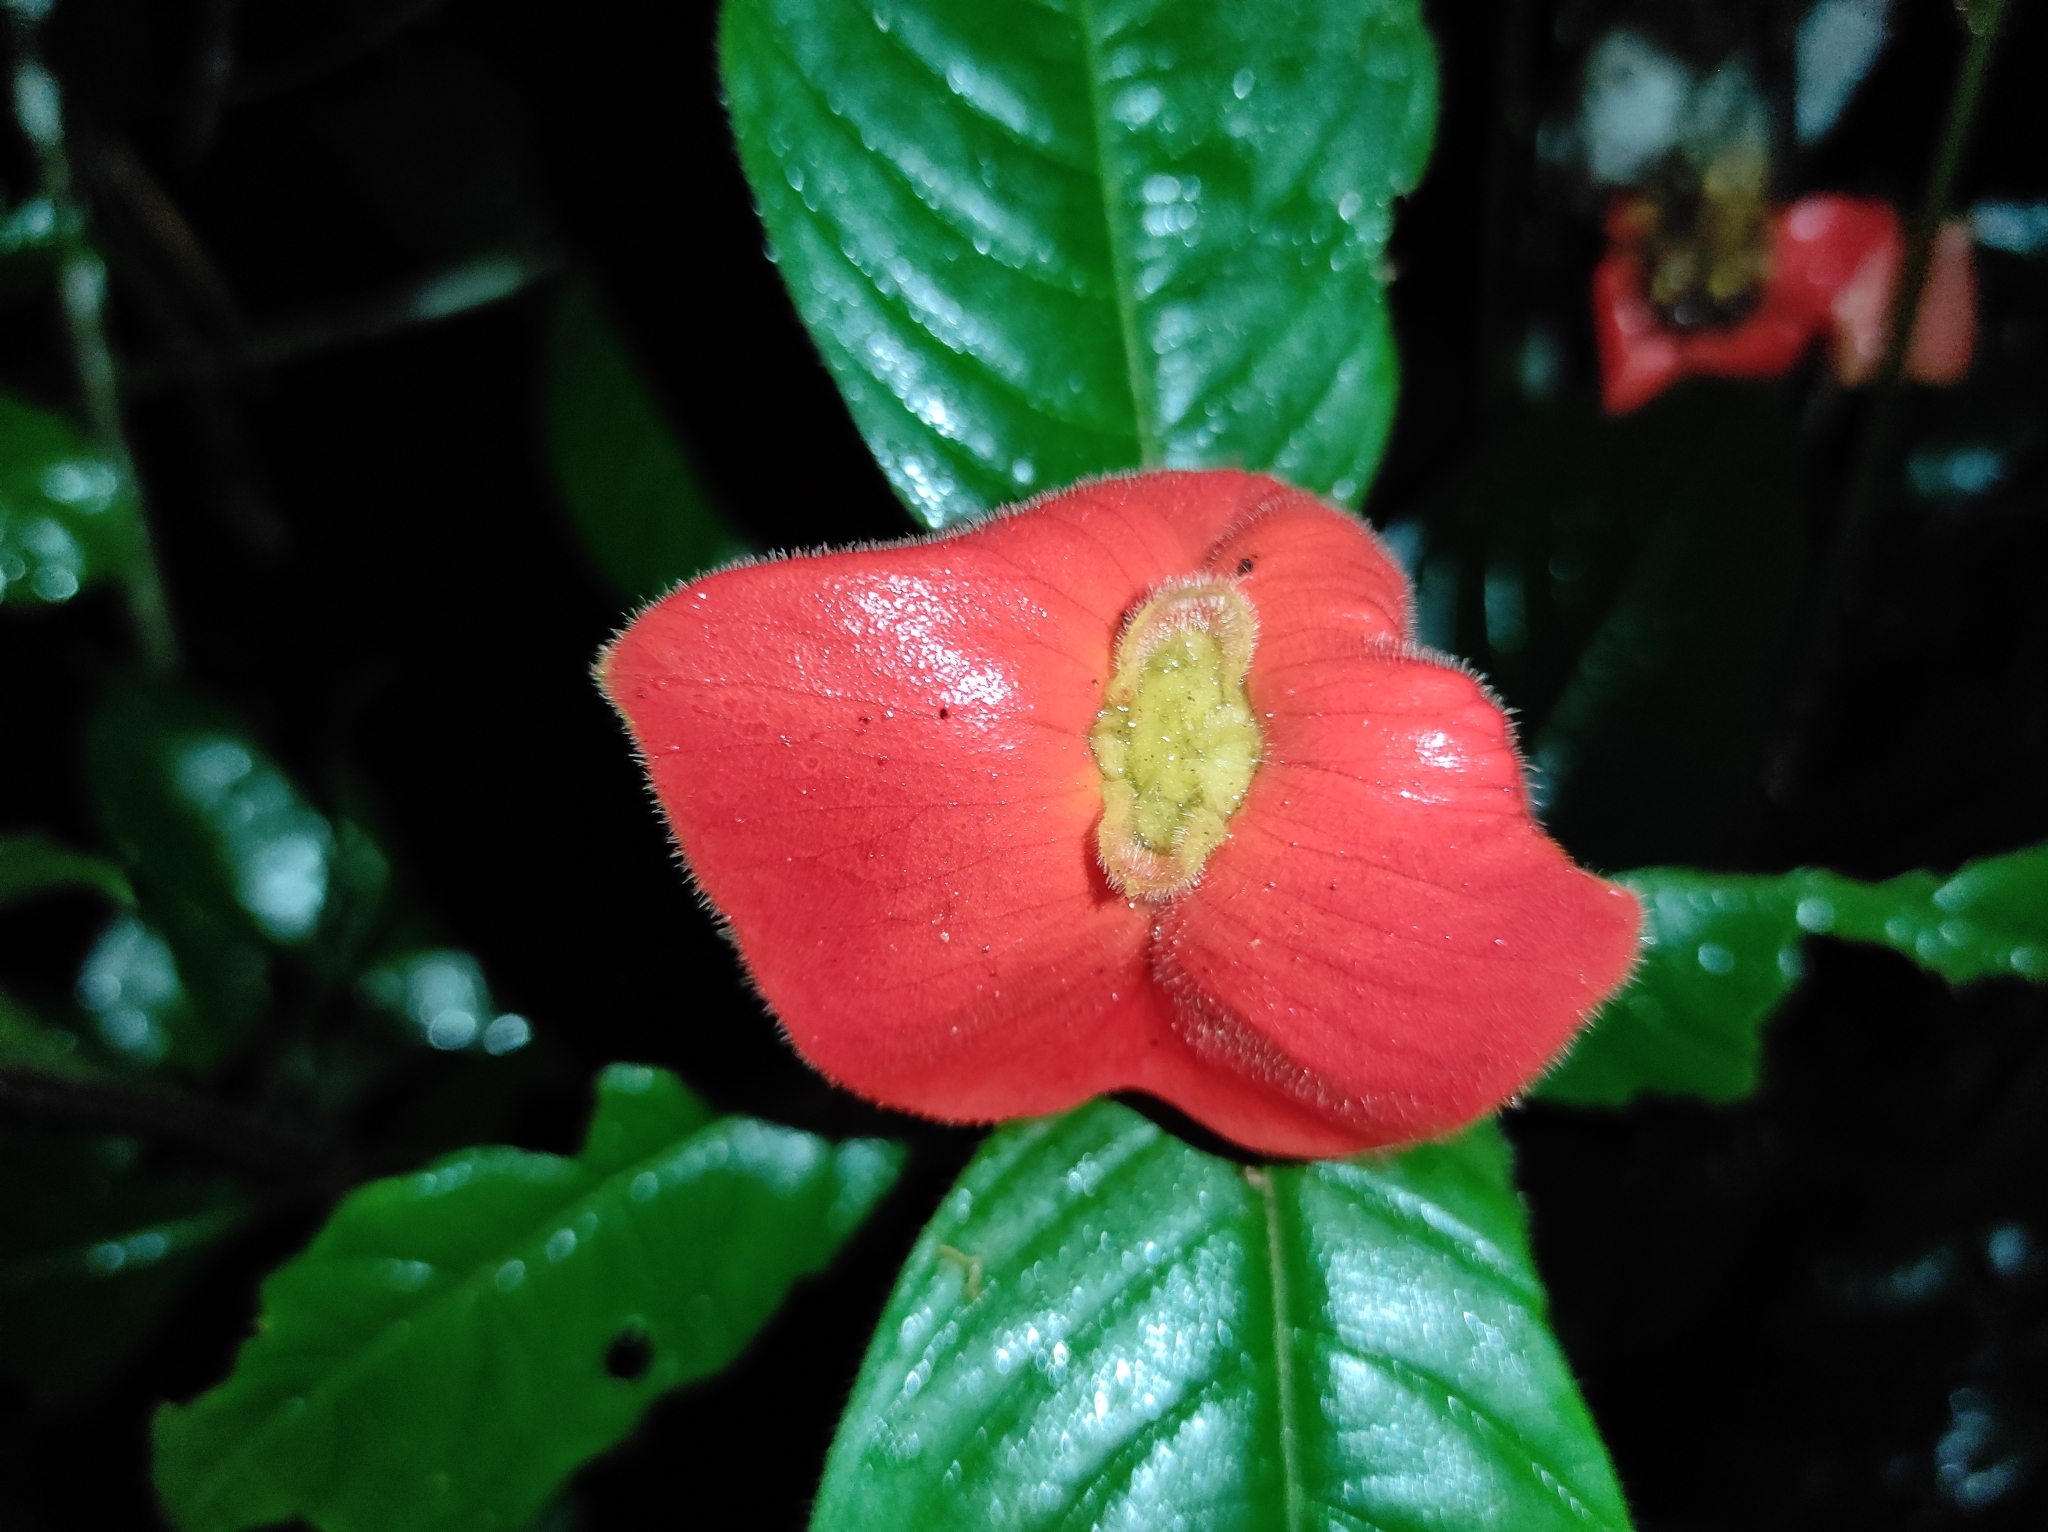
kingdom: Plantae
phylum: Tracheophyta
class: Magnoliopsida
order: Gentianales
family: Rubiaceae
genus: Palicourea
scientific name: Palicourea tomentosa
